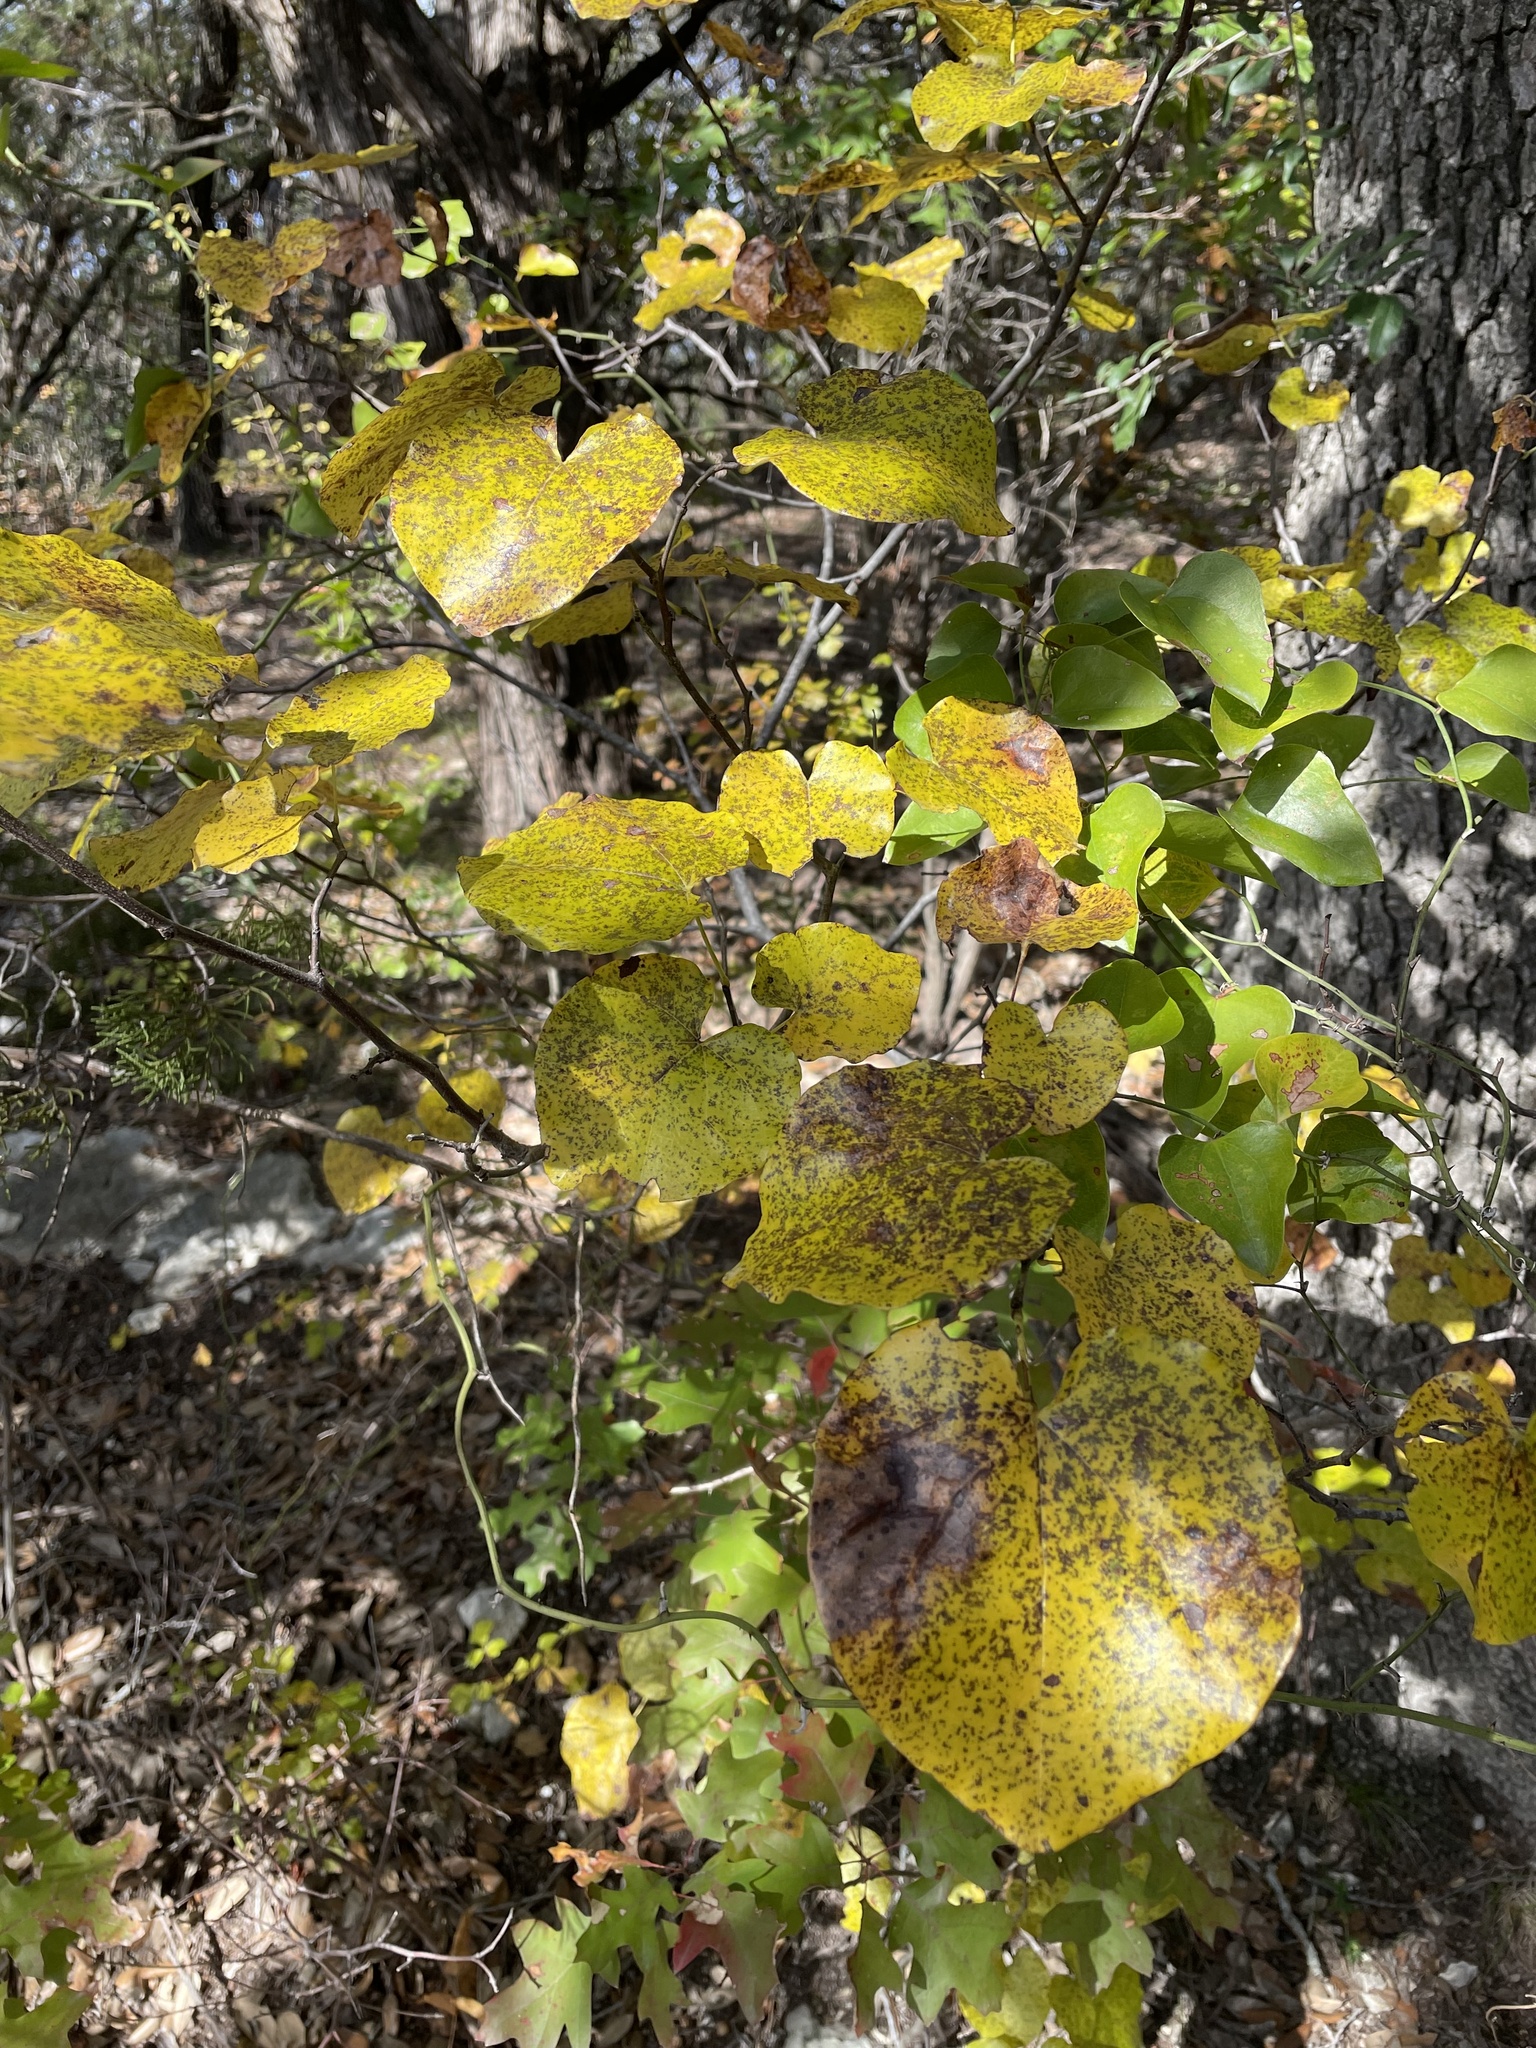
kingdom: Plantae
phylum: Tracheophyta
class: Magnoliopsida
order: Fabales
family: Fabaceae
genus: Cercis
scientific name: Cercis canadensis
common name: Eastern redbud
